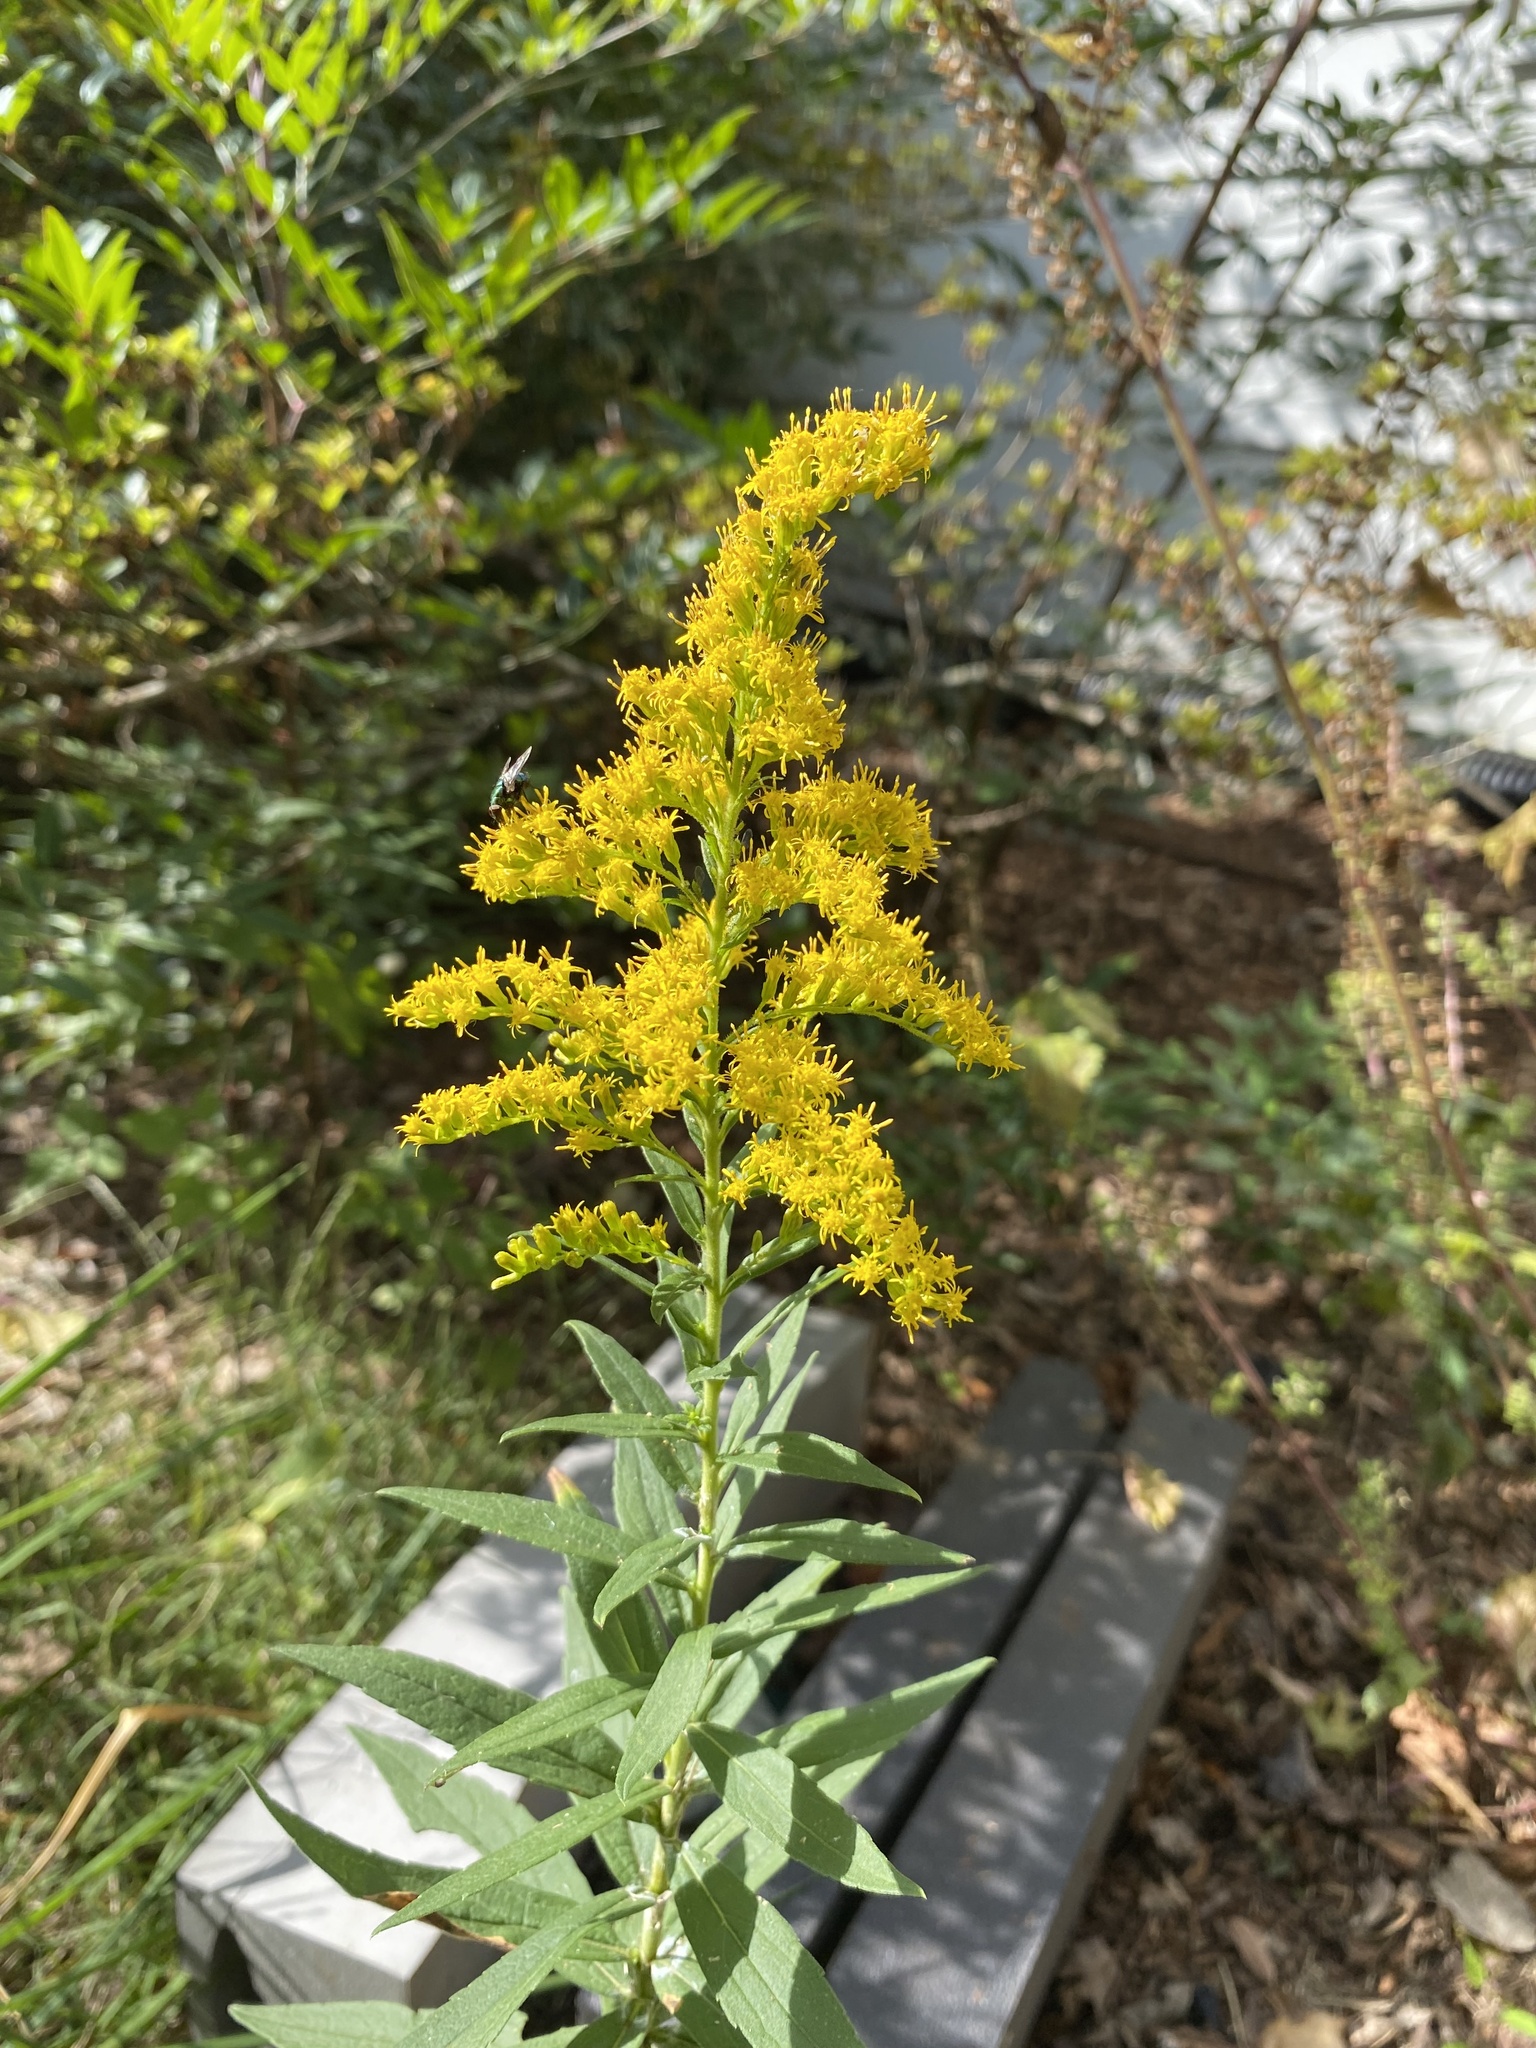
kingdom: Plantae
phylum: Tracheophyta
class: Magnoliopsida
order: Asterales
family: Asteraceae
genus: Solidago
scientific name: Solidago altissima
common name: Late goldenrod
